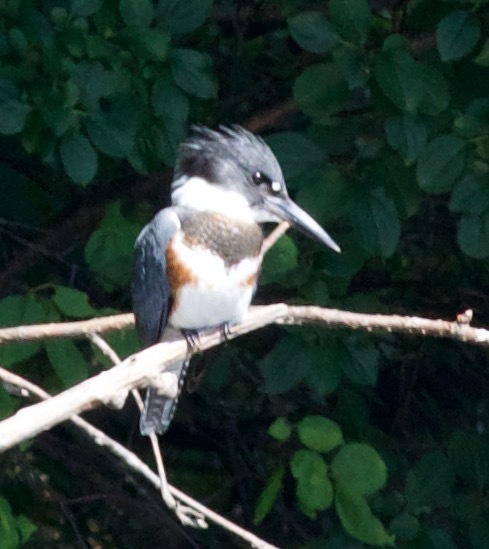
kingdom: Animalia
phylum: Chordata
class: Aves
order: Coraciiformes
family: Alcedinidae
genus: Megaceryle
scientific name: Megaceryle alcyon
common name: Belted kingfisher
